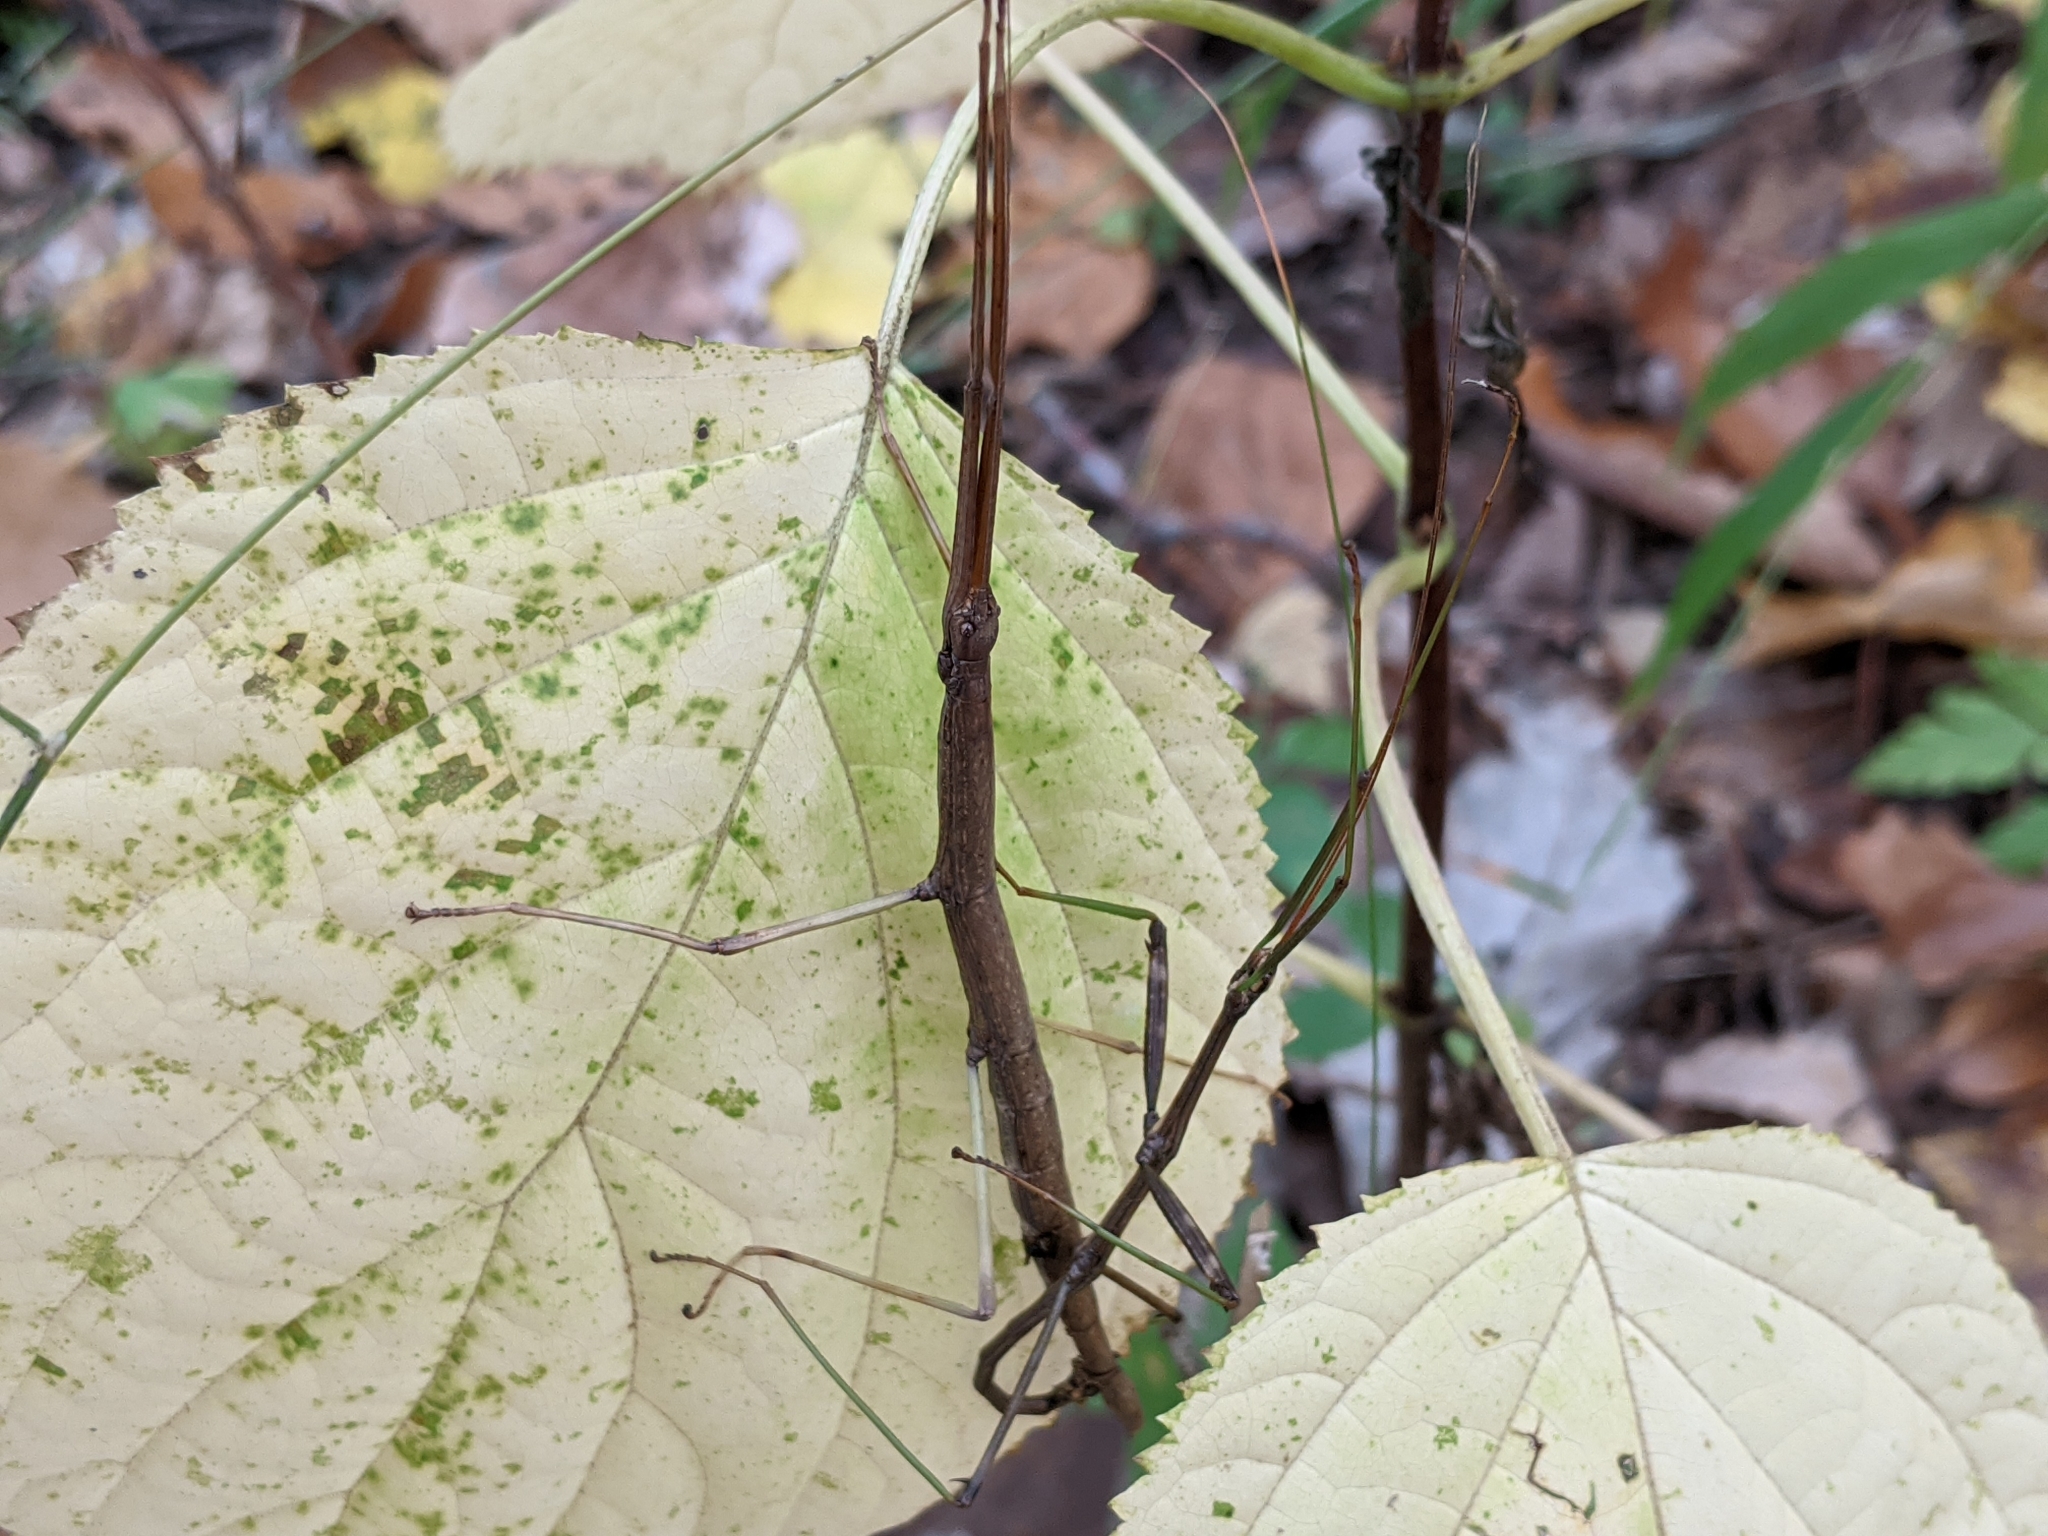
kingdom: Animalia
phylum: Arthropoda
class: Insecta
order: Phasmida
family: Diapheromeridae
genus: Diapheromera
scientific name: Diapheromera femorata
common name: Common american walkingstick
